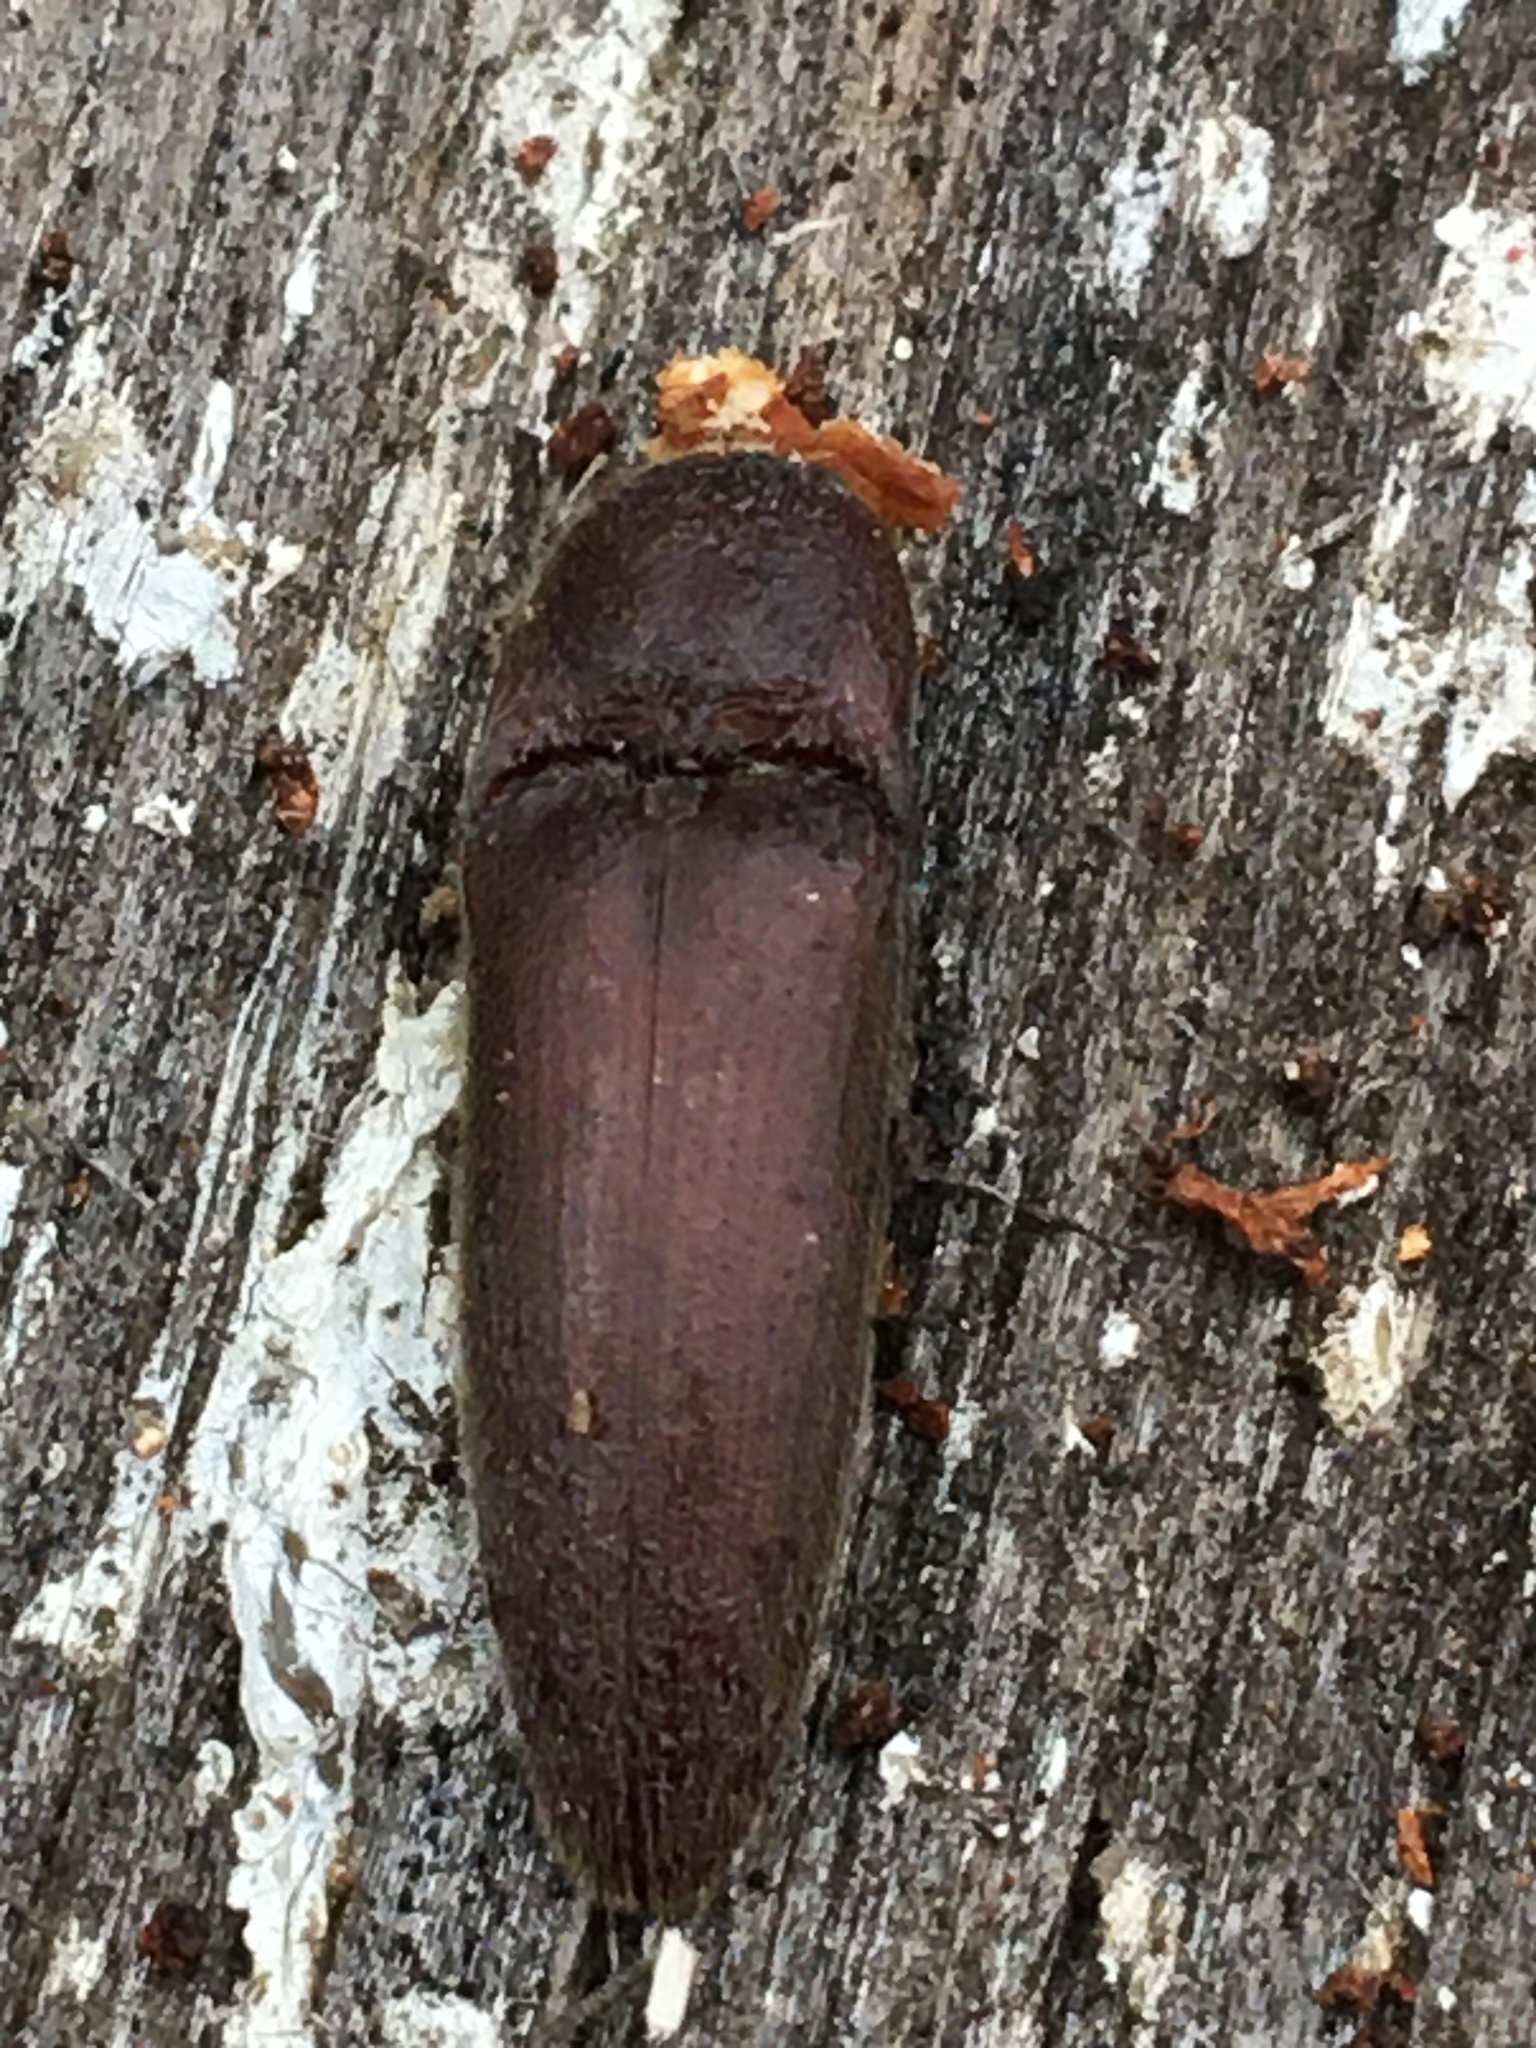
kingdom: Animalia
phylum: Arthropoda
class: Insecta
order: Coleoptera
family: Elateridae
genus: Melanotus
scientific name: Melanotus
